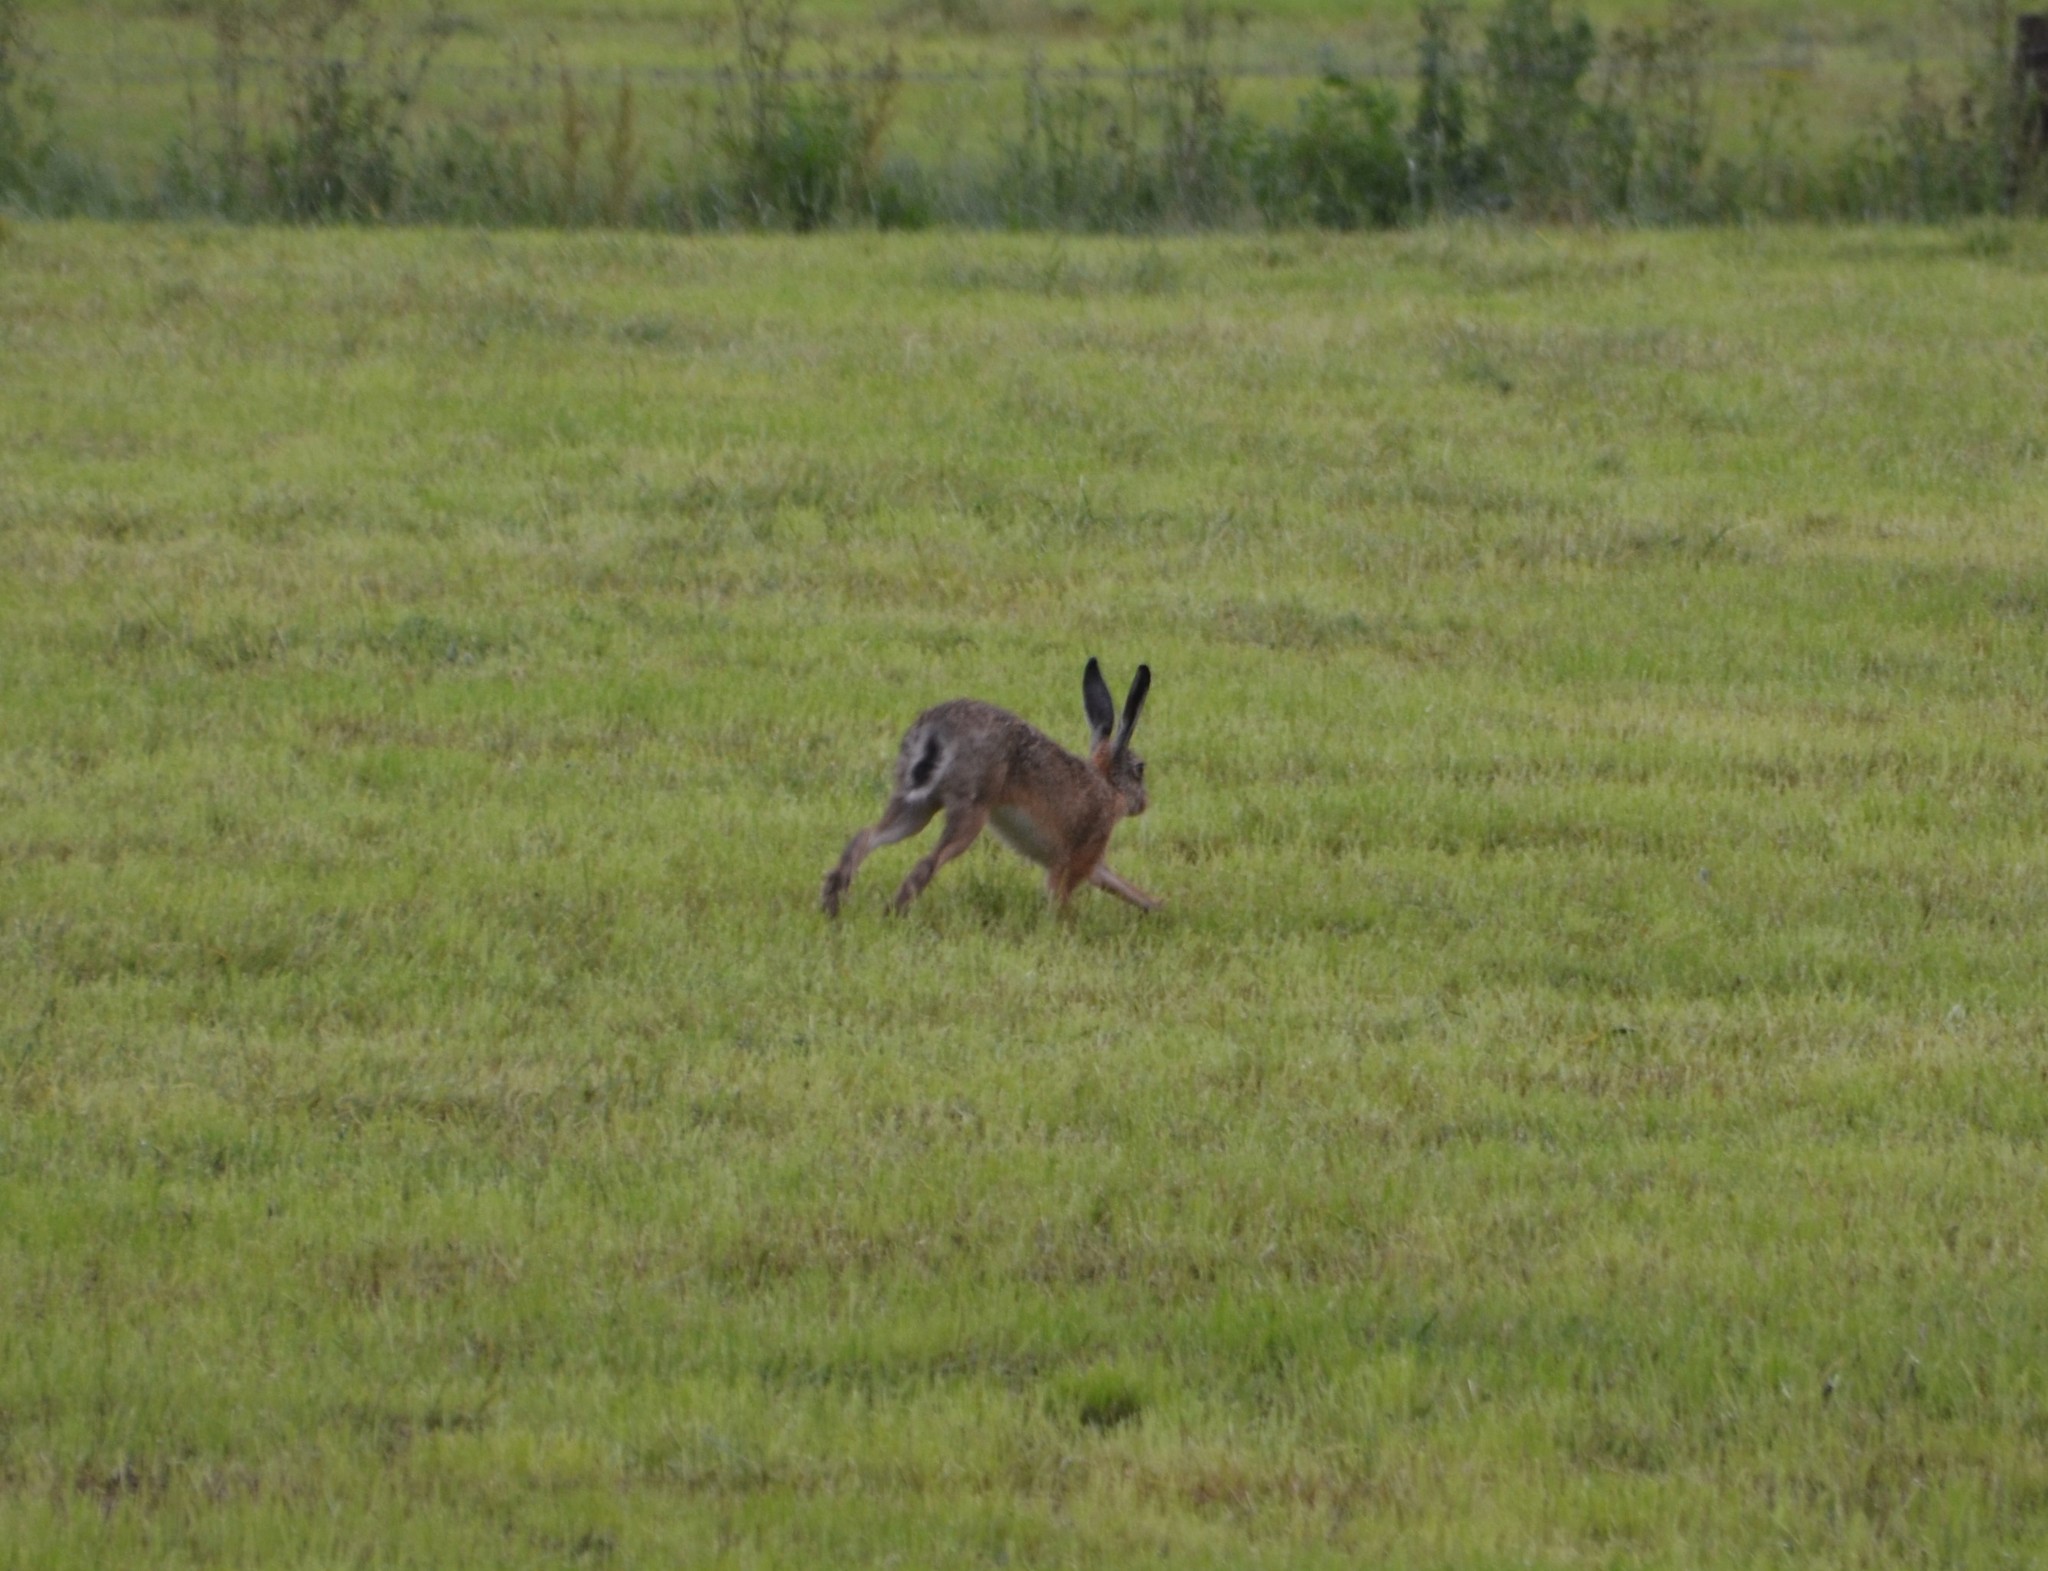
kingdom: Animalia
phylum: Chordata
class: Mammalia
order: Lagomorpha
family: Leporidae
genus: Lepus
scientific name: Lepus europaeus
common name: European hare
